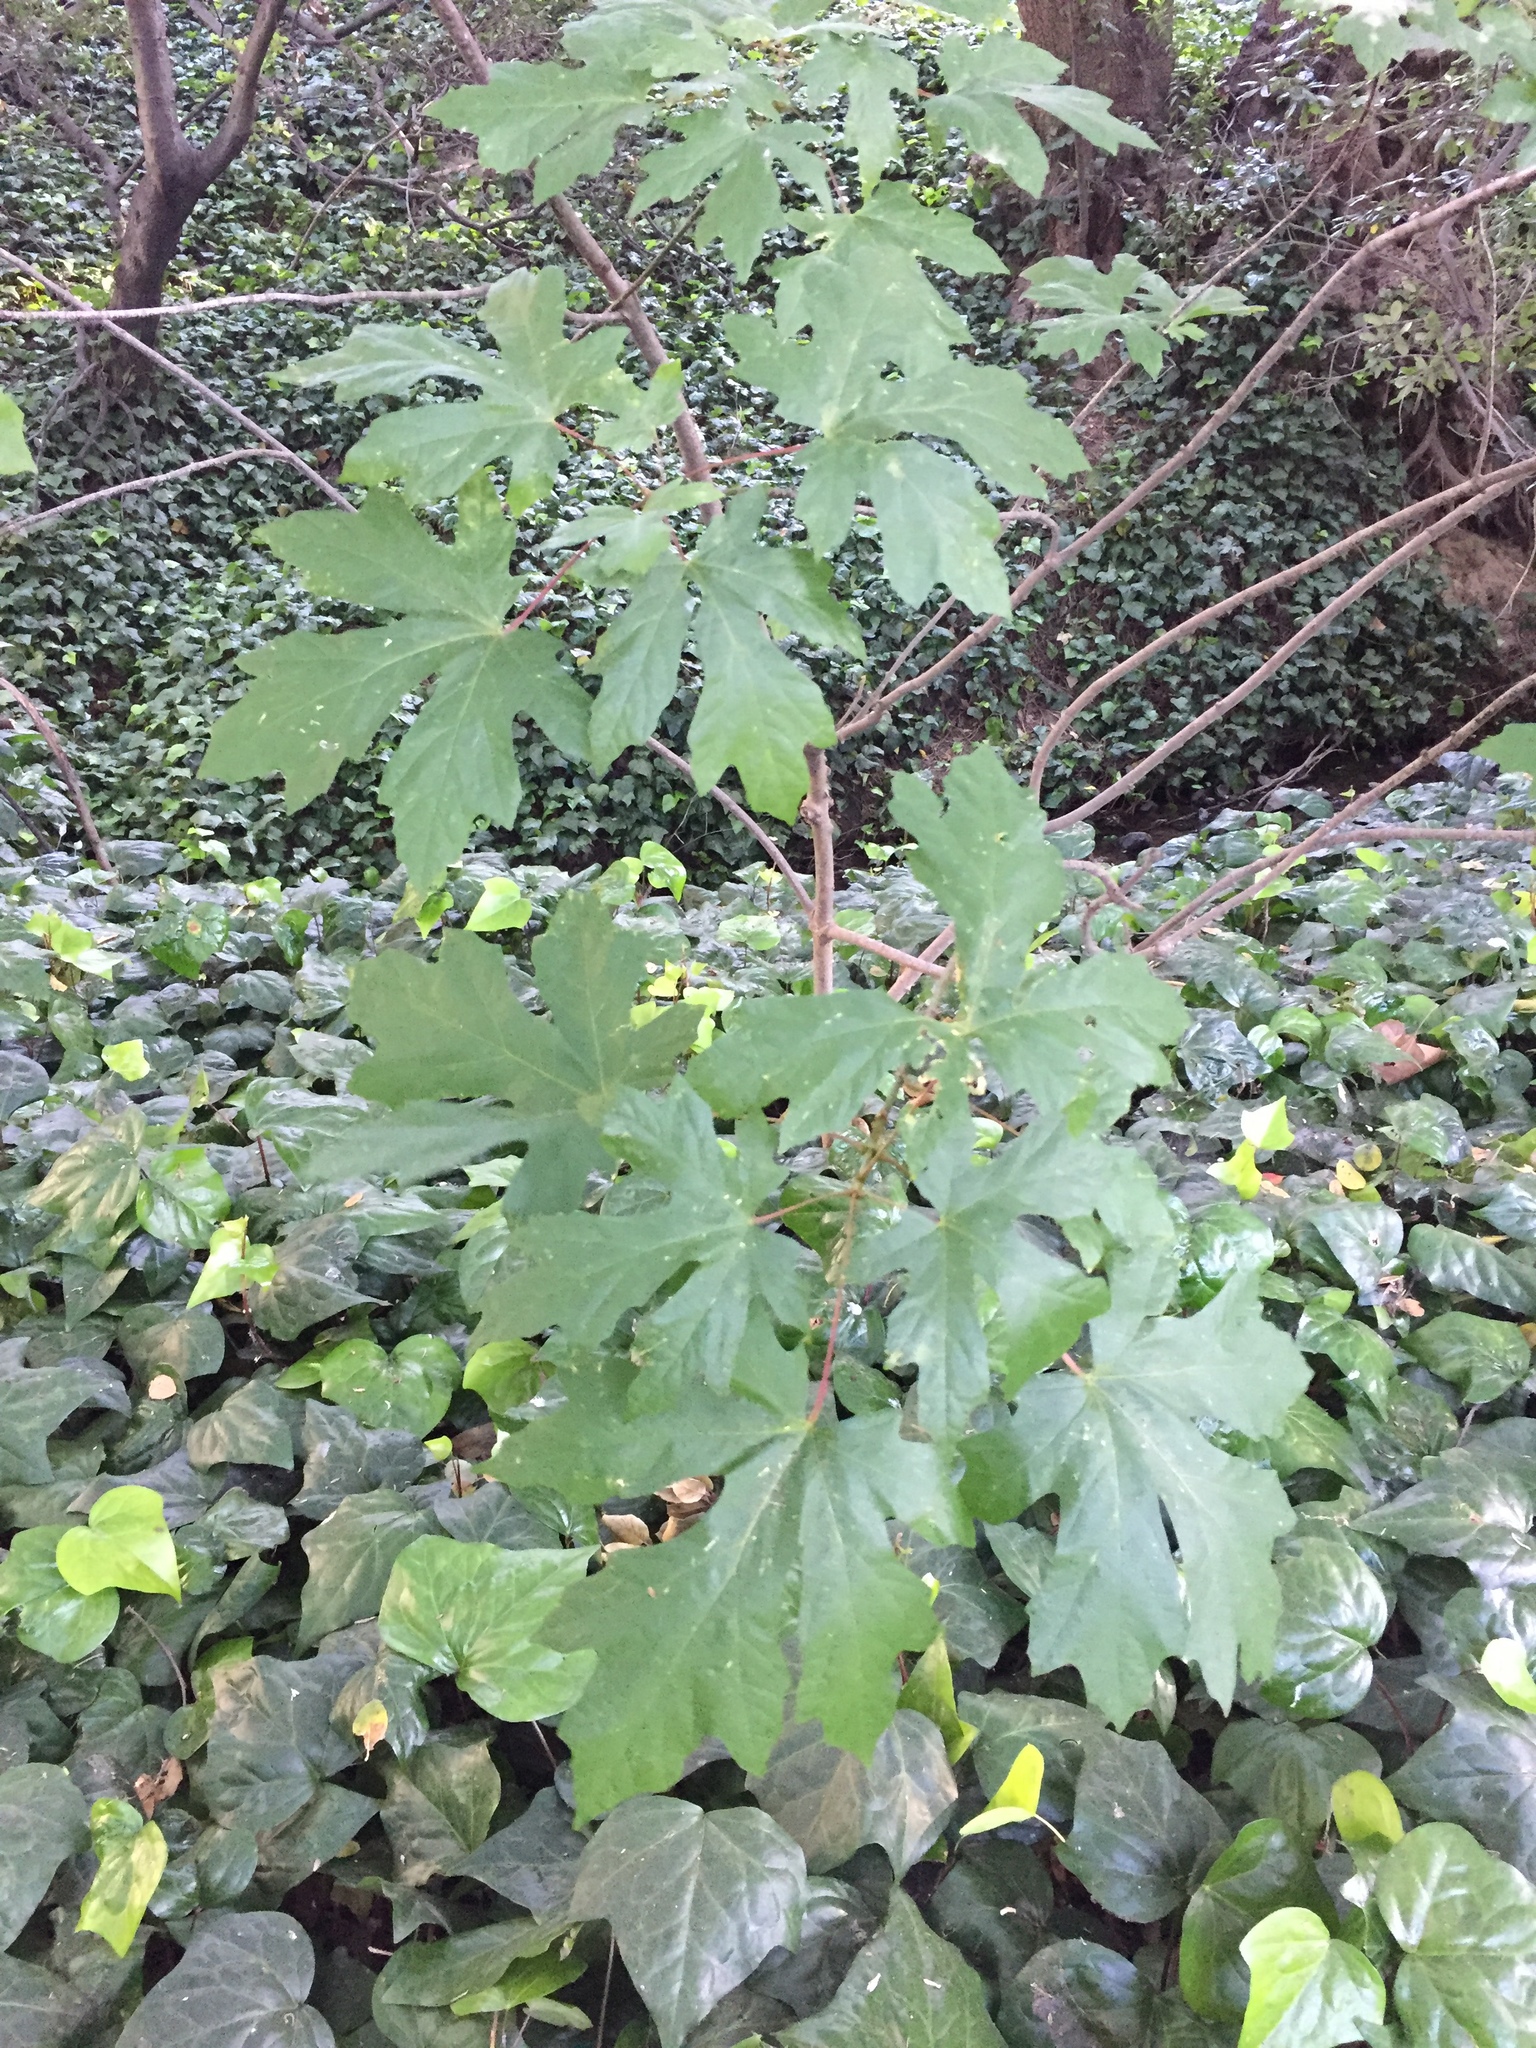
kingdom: Plantae
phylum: Tracheophyta
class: Magnoliopsida
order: Sapindales
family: Sapindaceae
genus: Acer
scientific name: Acer macrophyllum
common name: Oregon maple
